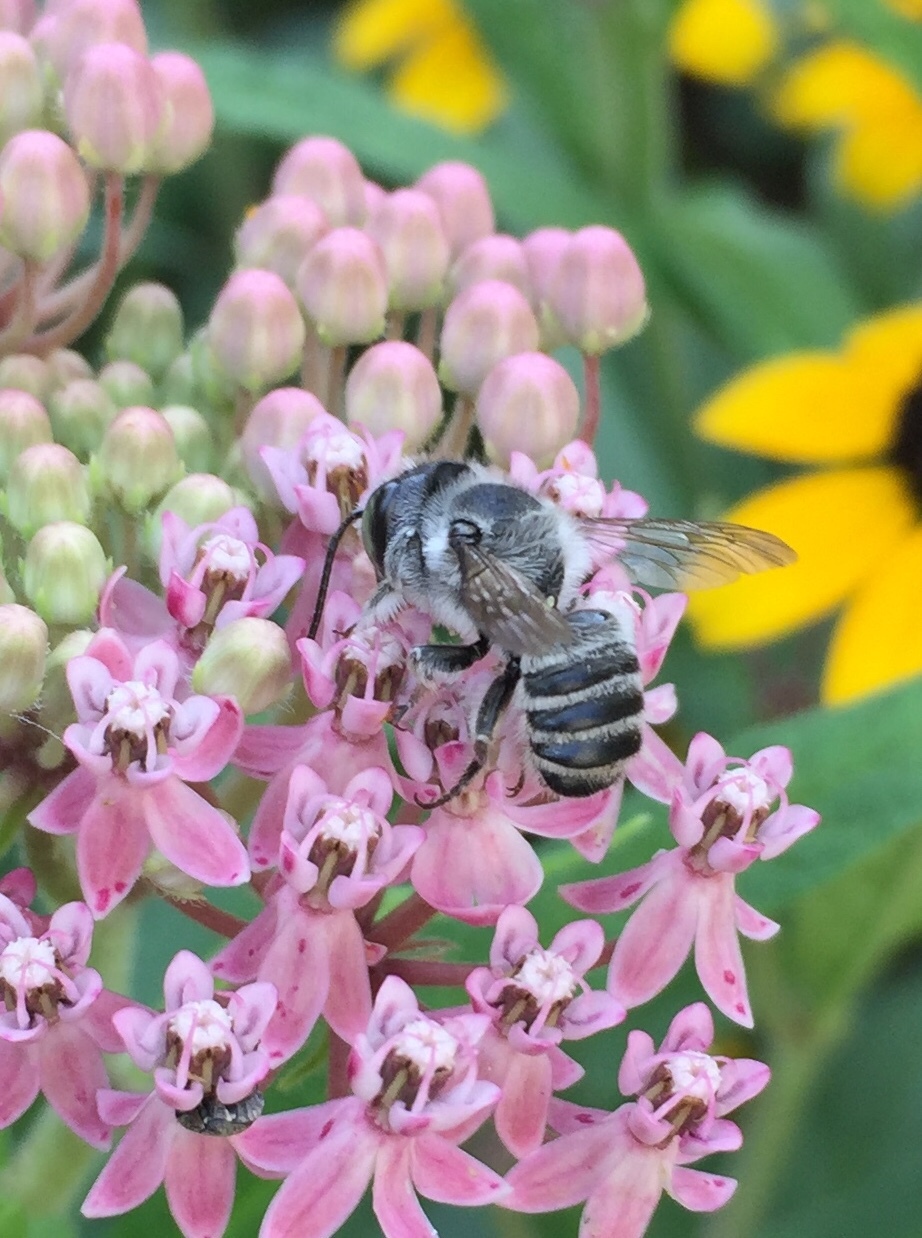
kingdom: Animalia
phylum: Arthropoda
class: Insecta
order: Hymenoptera
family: Megachilidae
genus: Megachile
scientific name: Megachile texana
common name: Texas leafcutter
